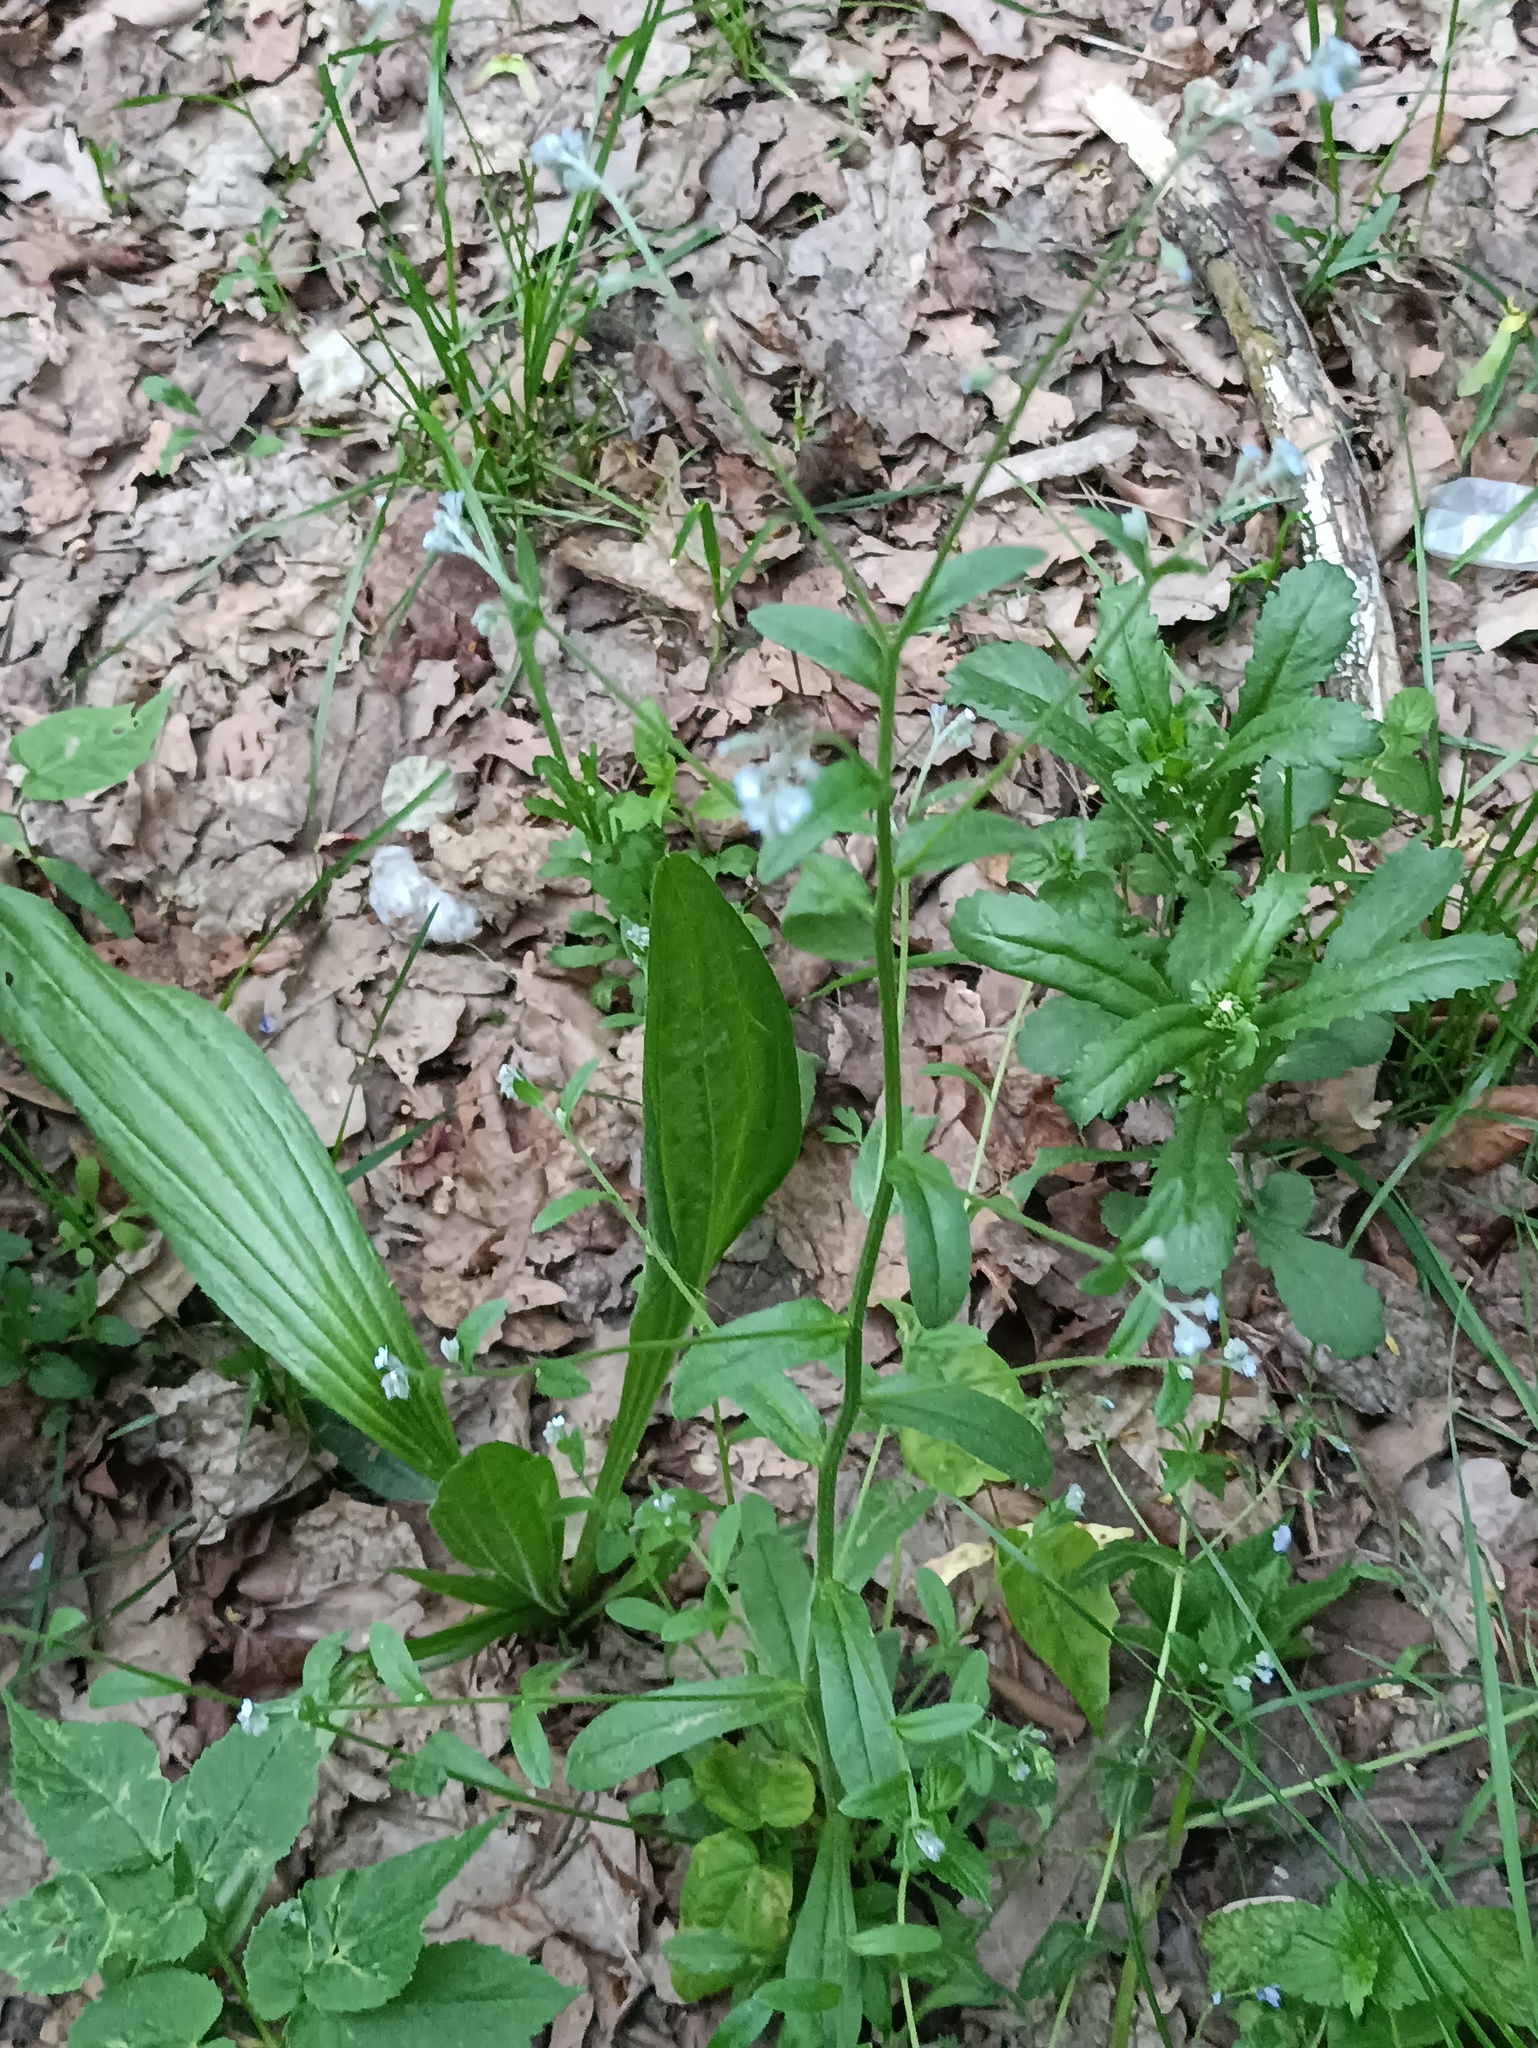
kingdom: Plantae
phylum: Tracheophyta
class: Magnoliopsida
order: Boraginales
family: Boraginaceae
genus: Myosotis
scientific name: Myosotis arvensis
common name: Field forget-me-not
